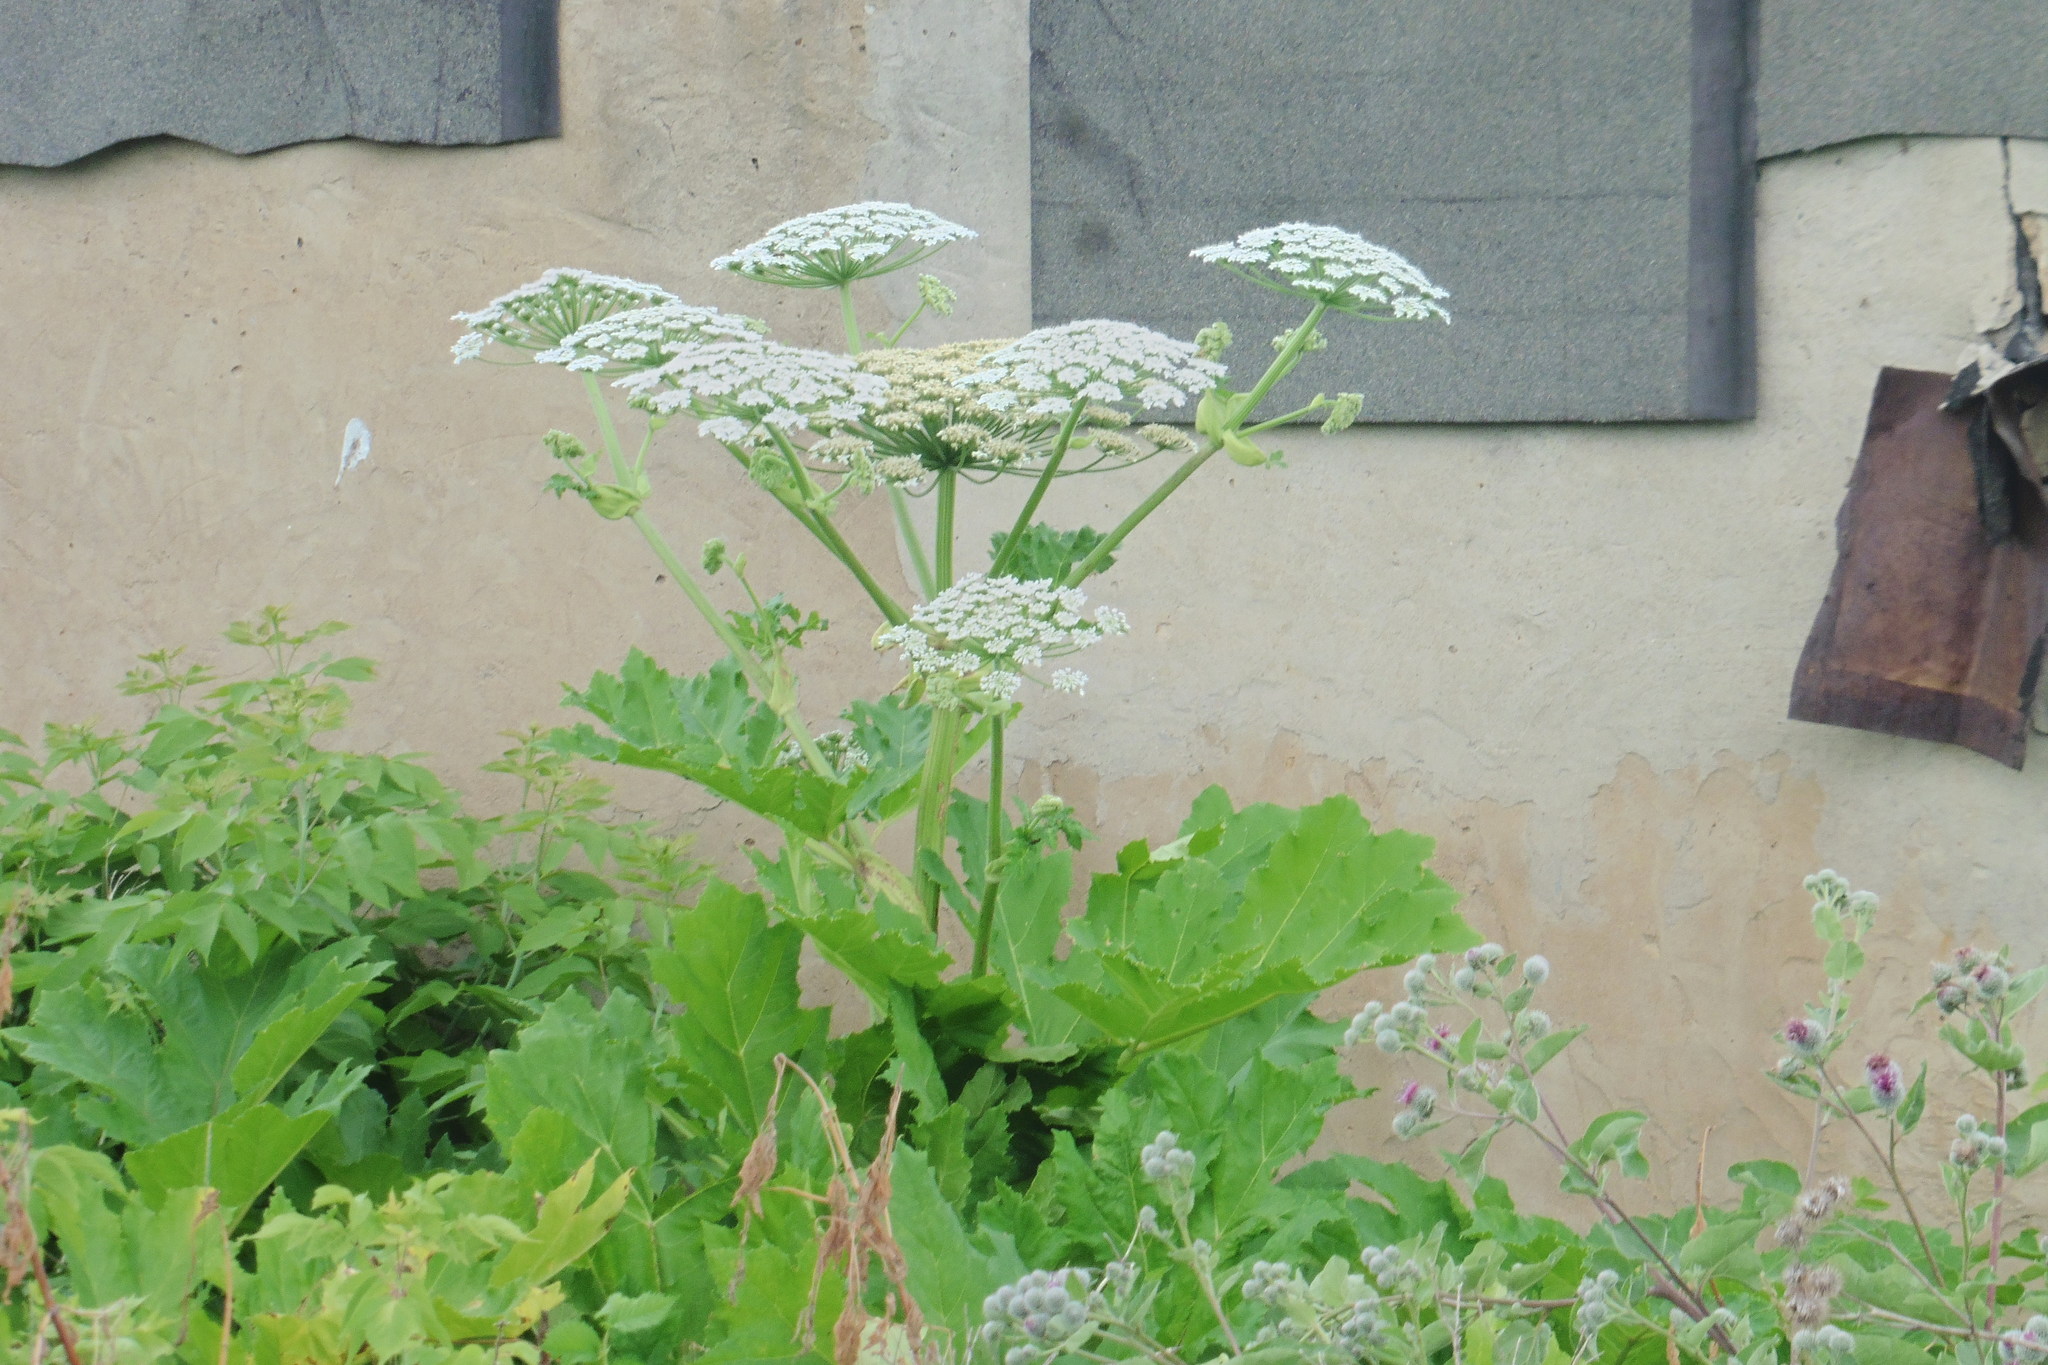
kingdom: Plantae
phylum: Tracheophyta
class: Magnoliopsida
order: Apiales
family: Apiaceae
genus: Heracleum
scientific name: Heracleum sosnowskyi
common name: Sosnowsky's hogweed
